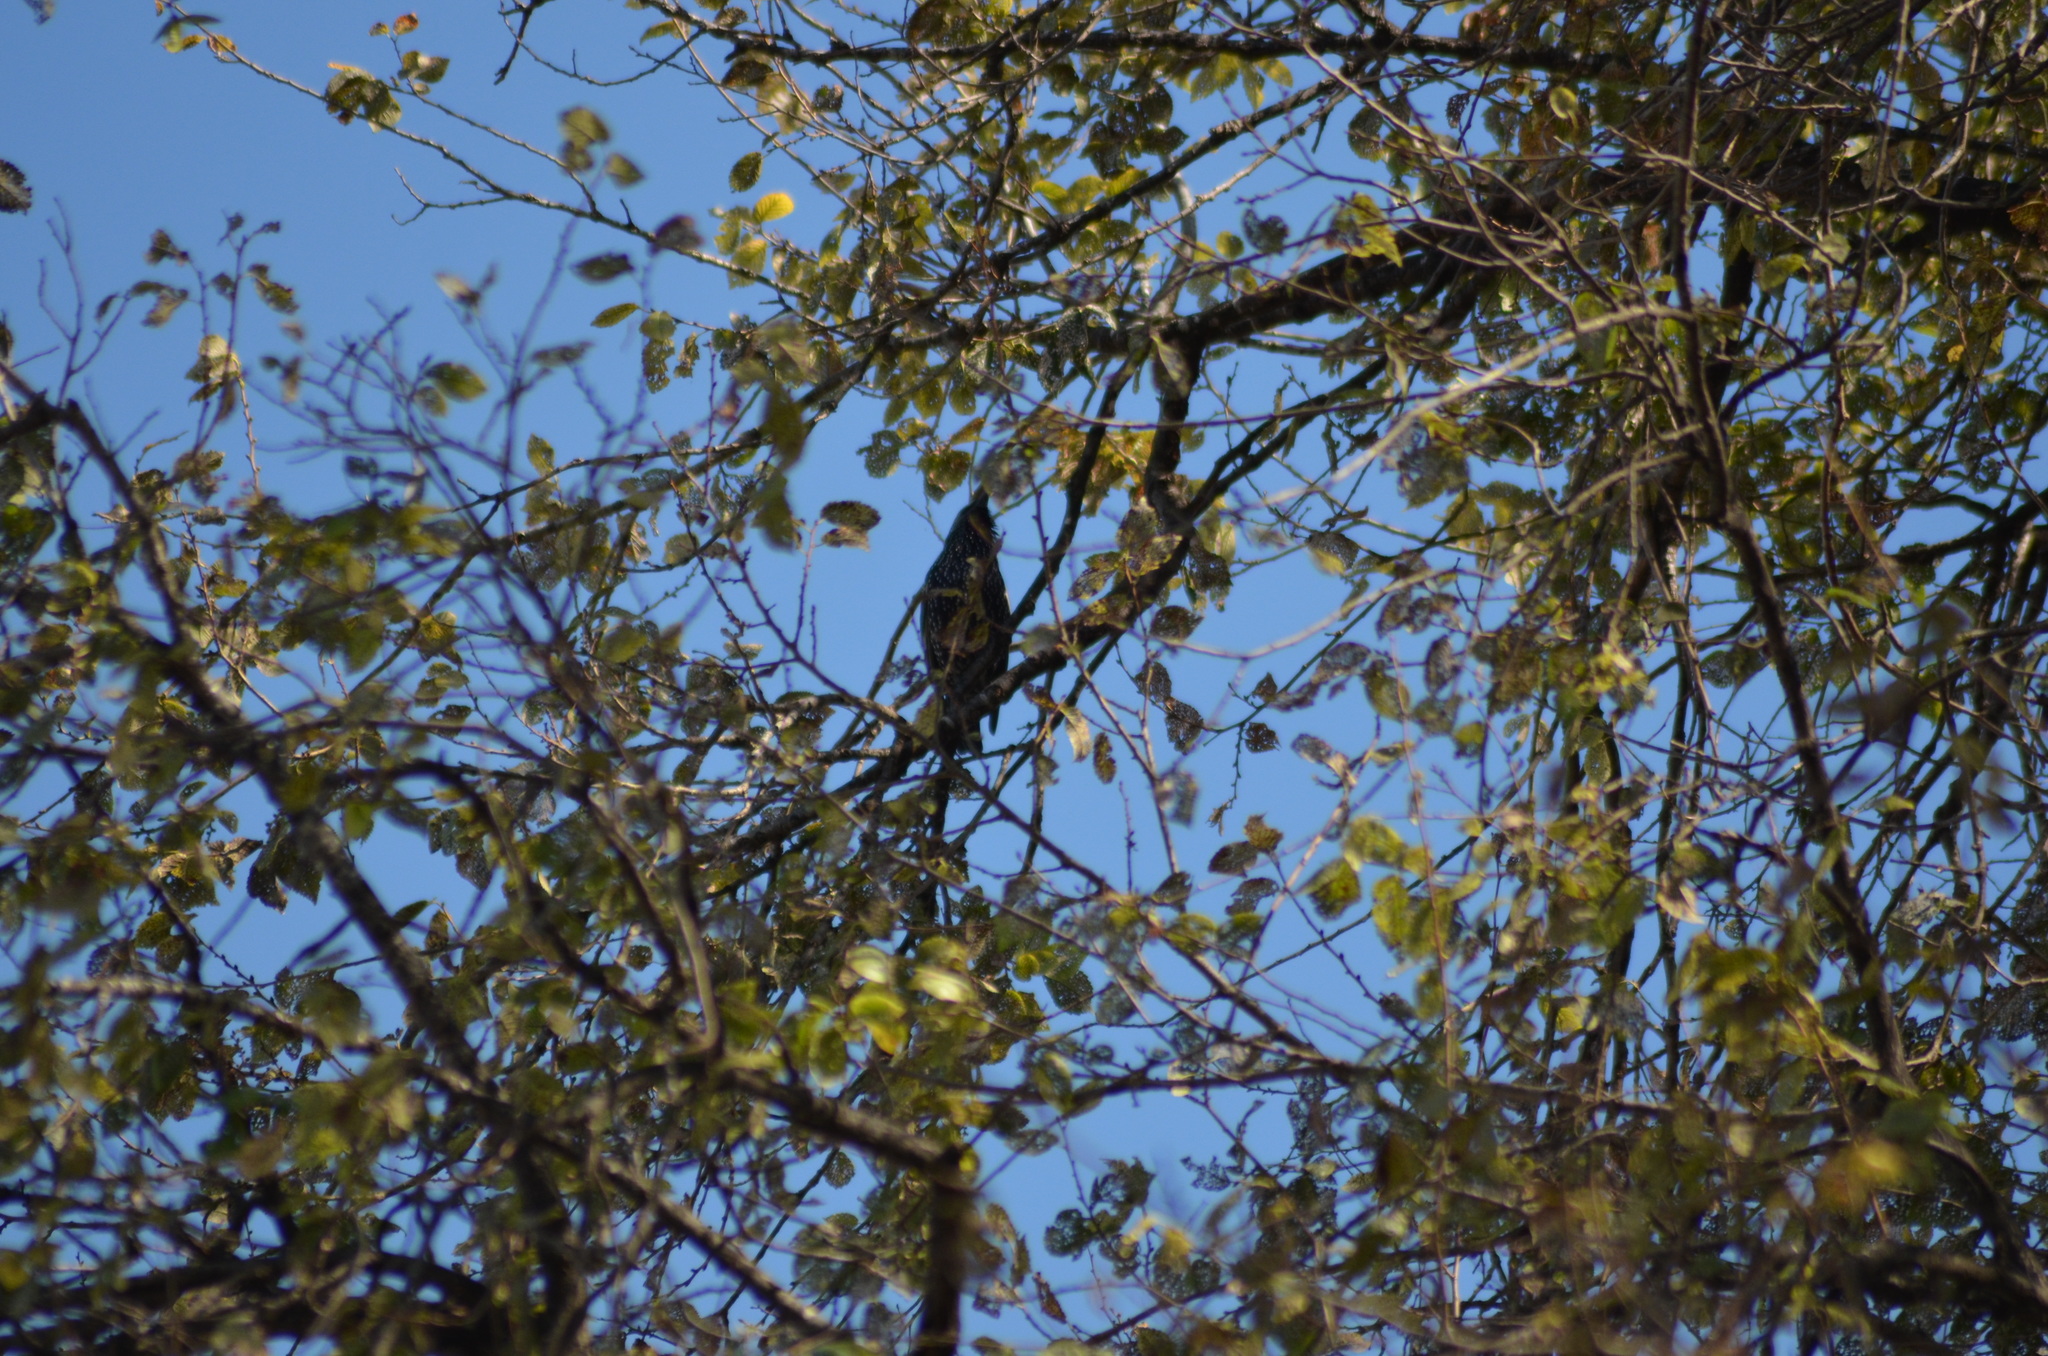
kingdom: Animalia
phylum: Chordata
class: Aves
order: Passeriformes
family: Sturnidae
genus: Sturnus
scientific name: Sturnus vulgaris
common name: Common starling
